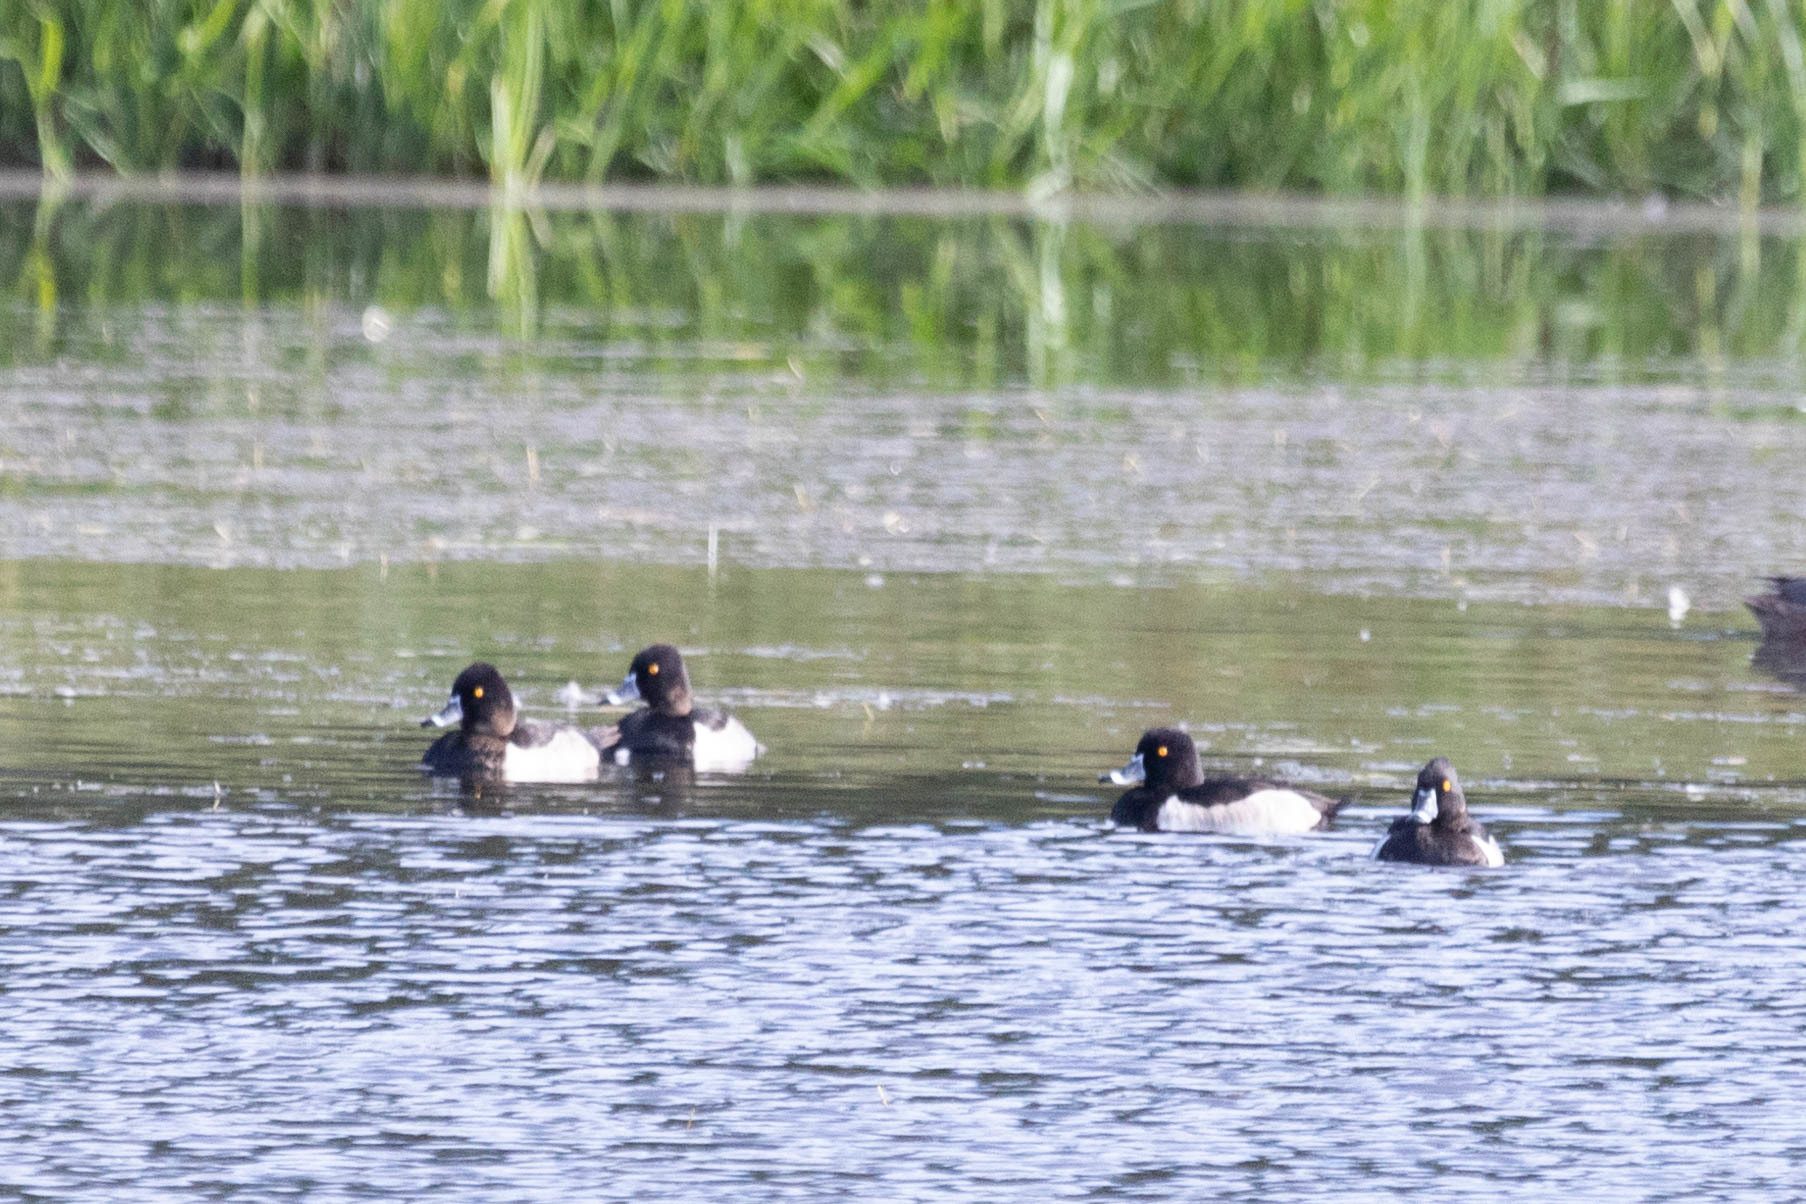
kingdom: Animalia
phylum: Chordata
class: Aves
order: Anseriformes
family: Anatidae
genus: Aythya
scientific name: Aythya collaris
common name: Ring-necked duck
